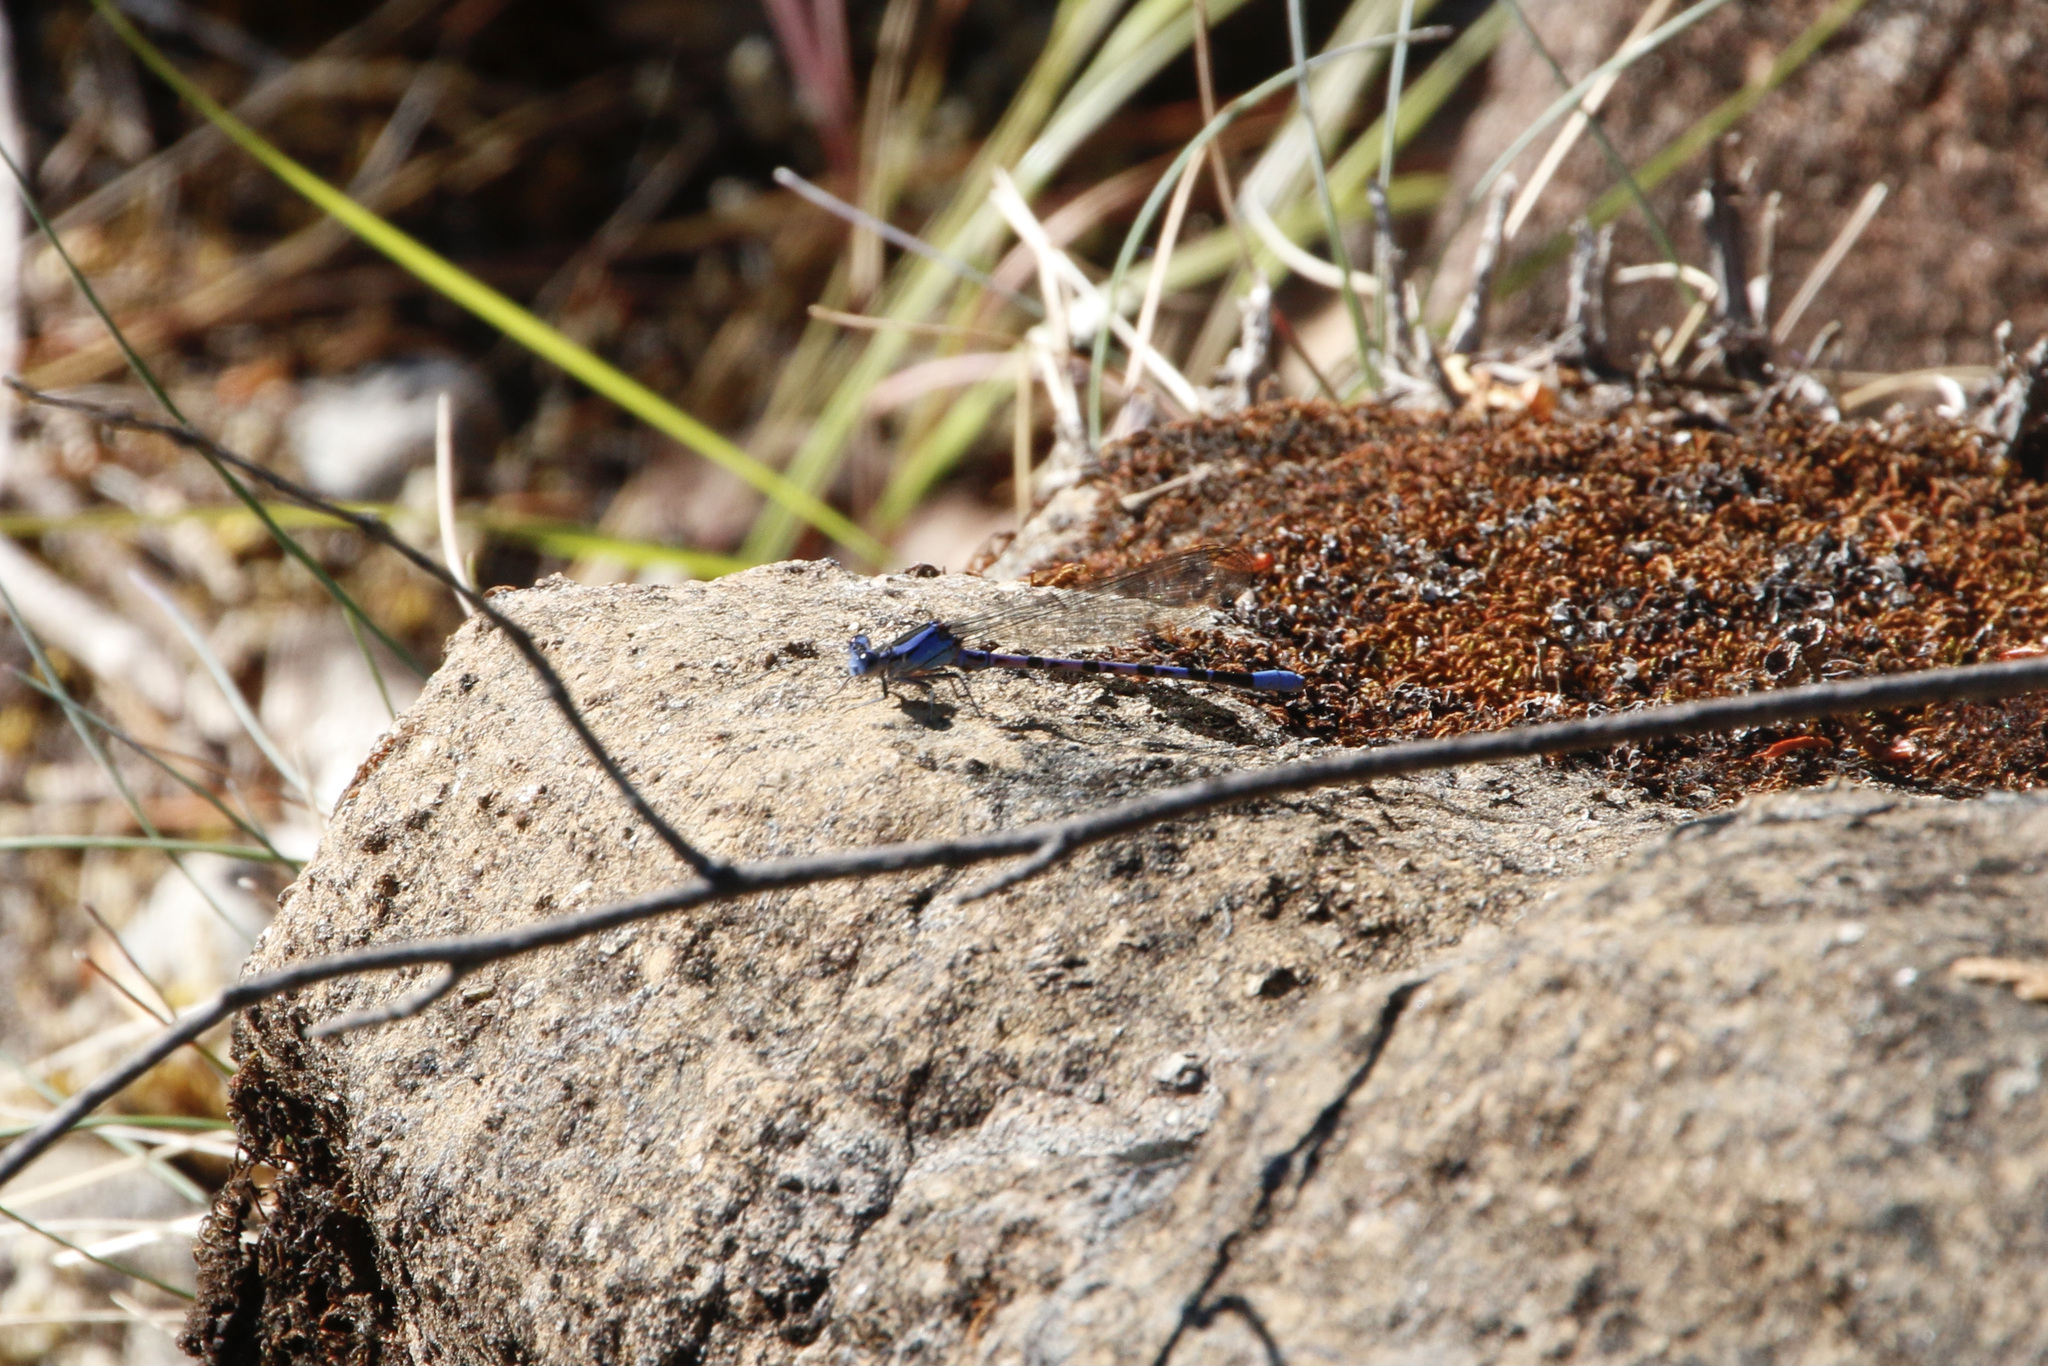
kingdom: Animalia
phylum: Arthropoda
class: Insecta
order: Odonata
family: Coenagrionidae
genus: Argia
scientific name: Argia vivida
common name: Vivid dancer
